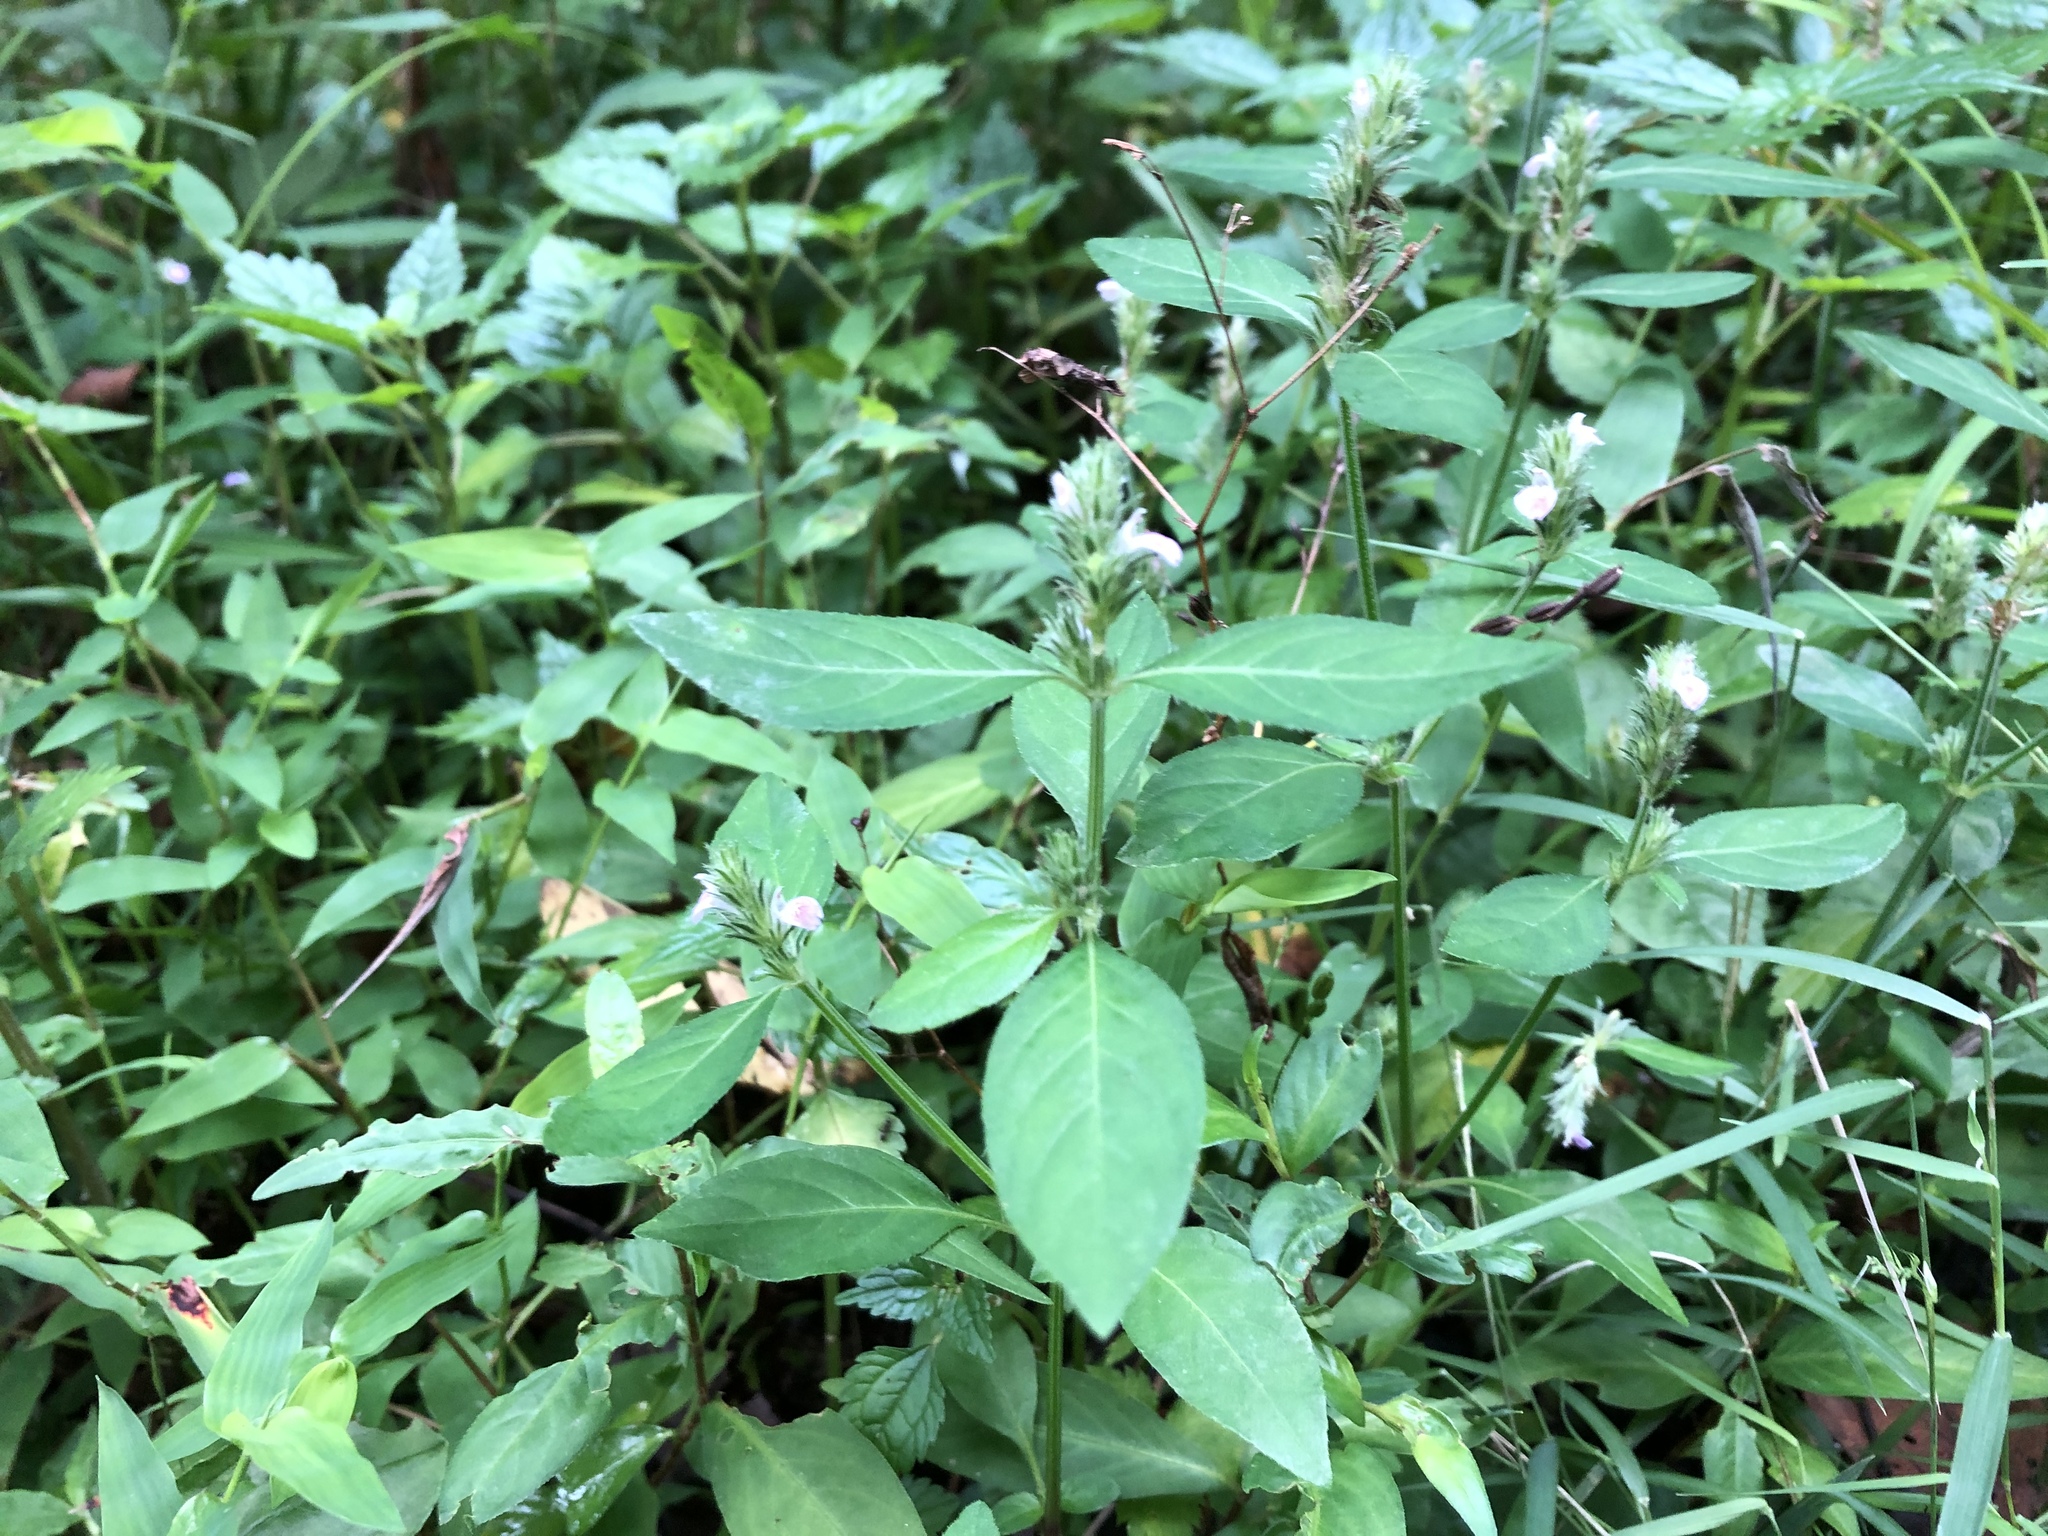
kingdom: Plantae
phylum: Tracheophyta
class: Magnoliopsida
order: Lamiales
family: Acanthaceae
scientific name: Acanthaceae
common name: Acanthaceae
